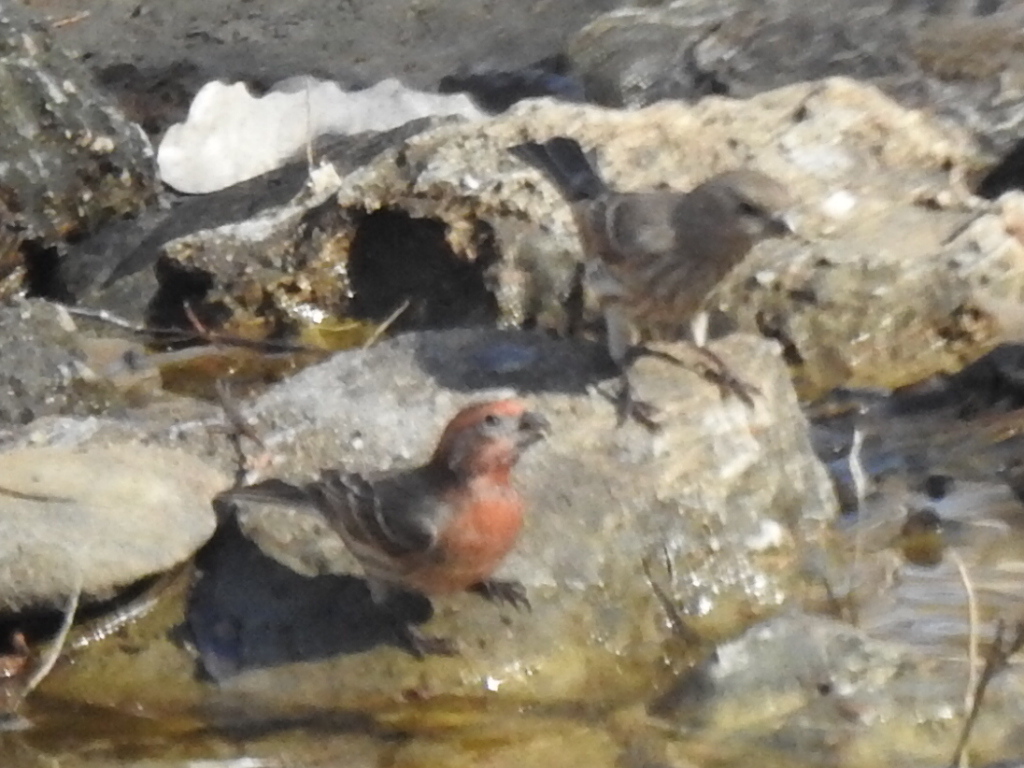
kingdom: Animalia
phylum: Chordata
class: Aves
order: Passeriformes
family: Fringillidae
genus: Haemorhous
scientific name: Haemorhous mexicanus
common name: House finch
